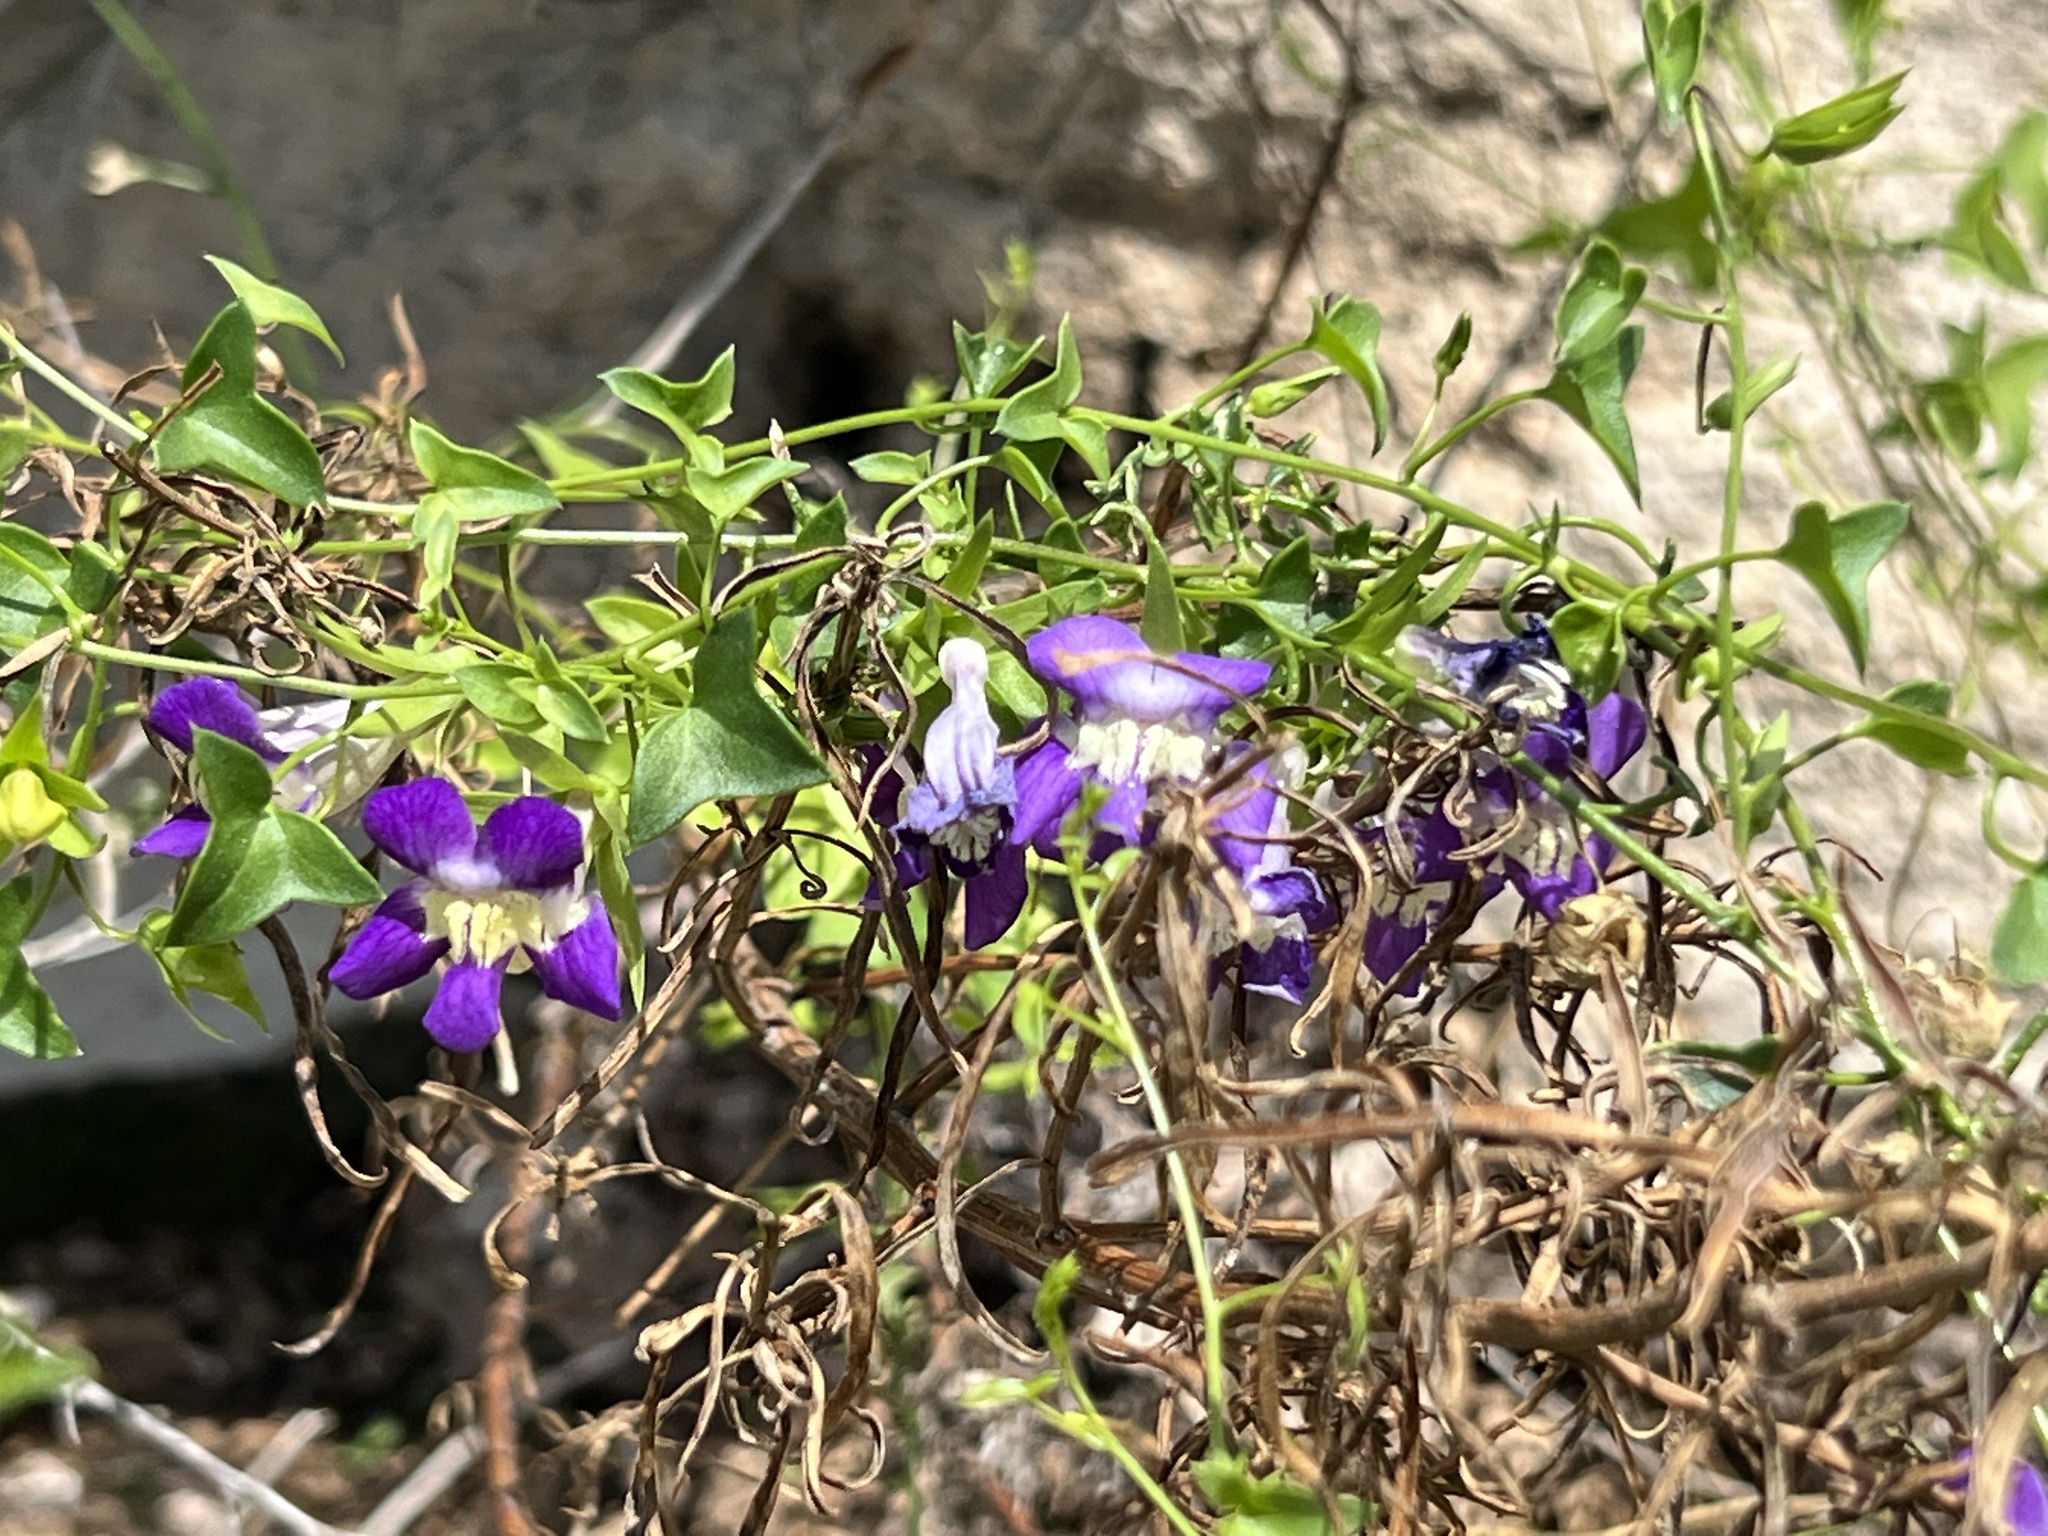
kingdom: Plantae
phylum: Tracheophyta
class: Magnoliopsida
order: Lamiales
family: Plantaginaceae
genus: Maurandella
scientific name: Maurandella antirrhiniflora
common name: Violet twining-snapdragon
